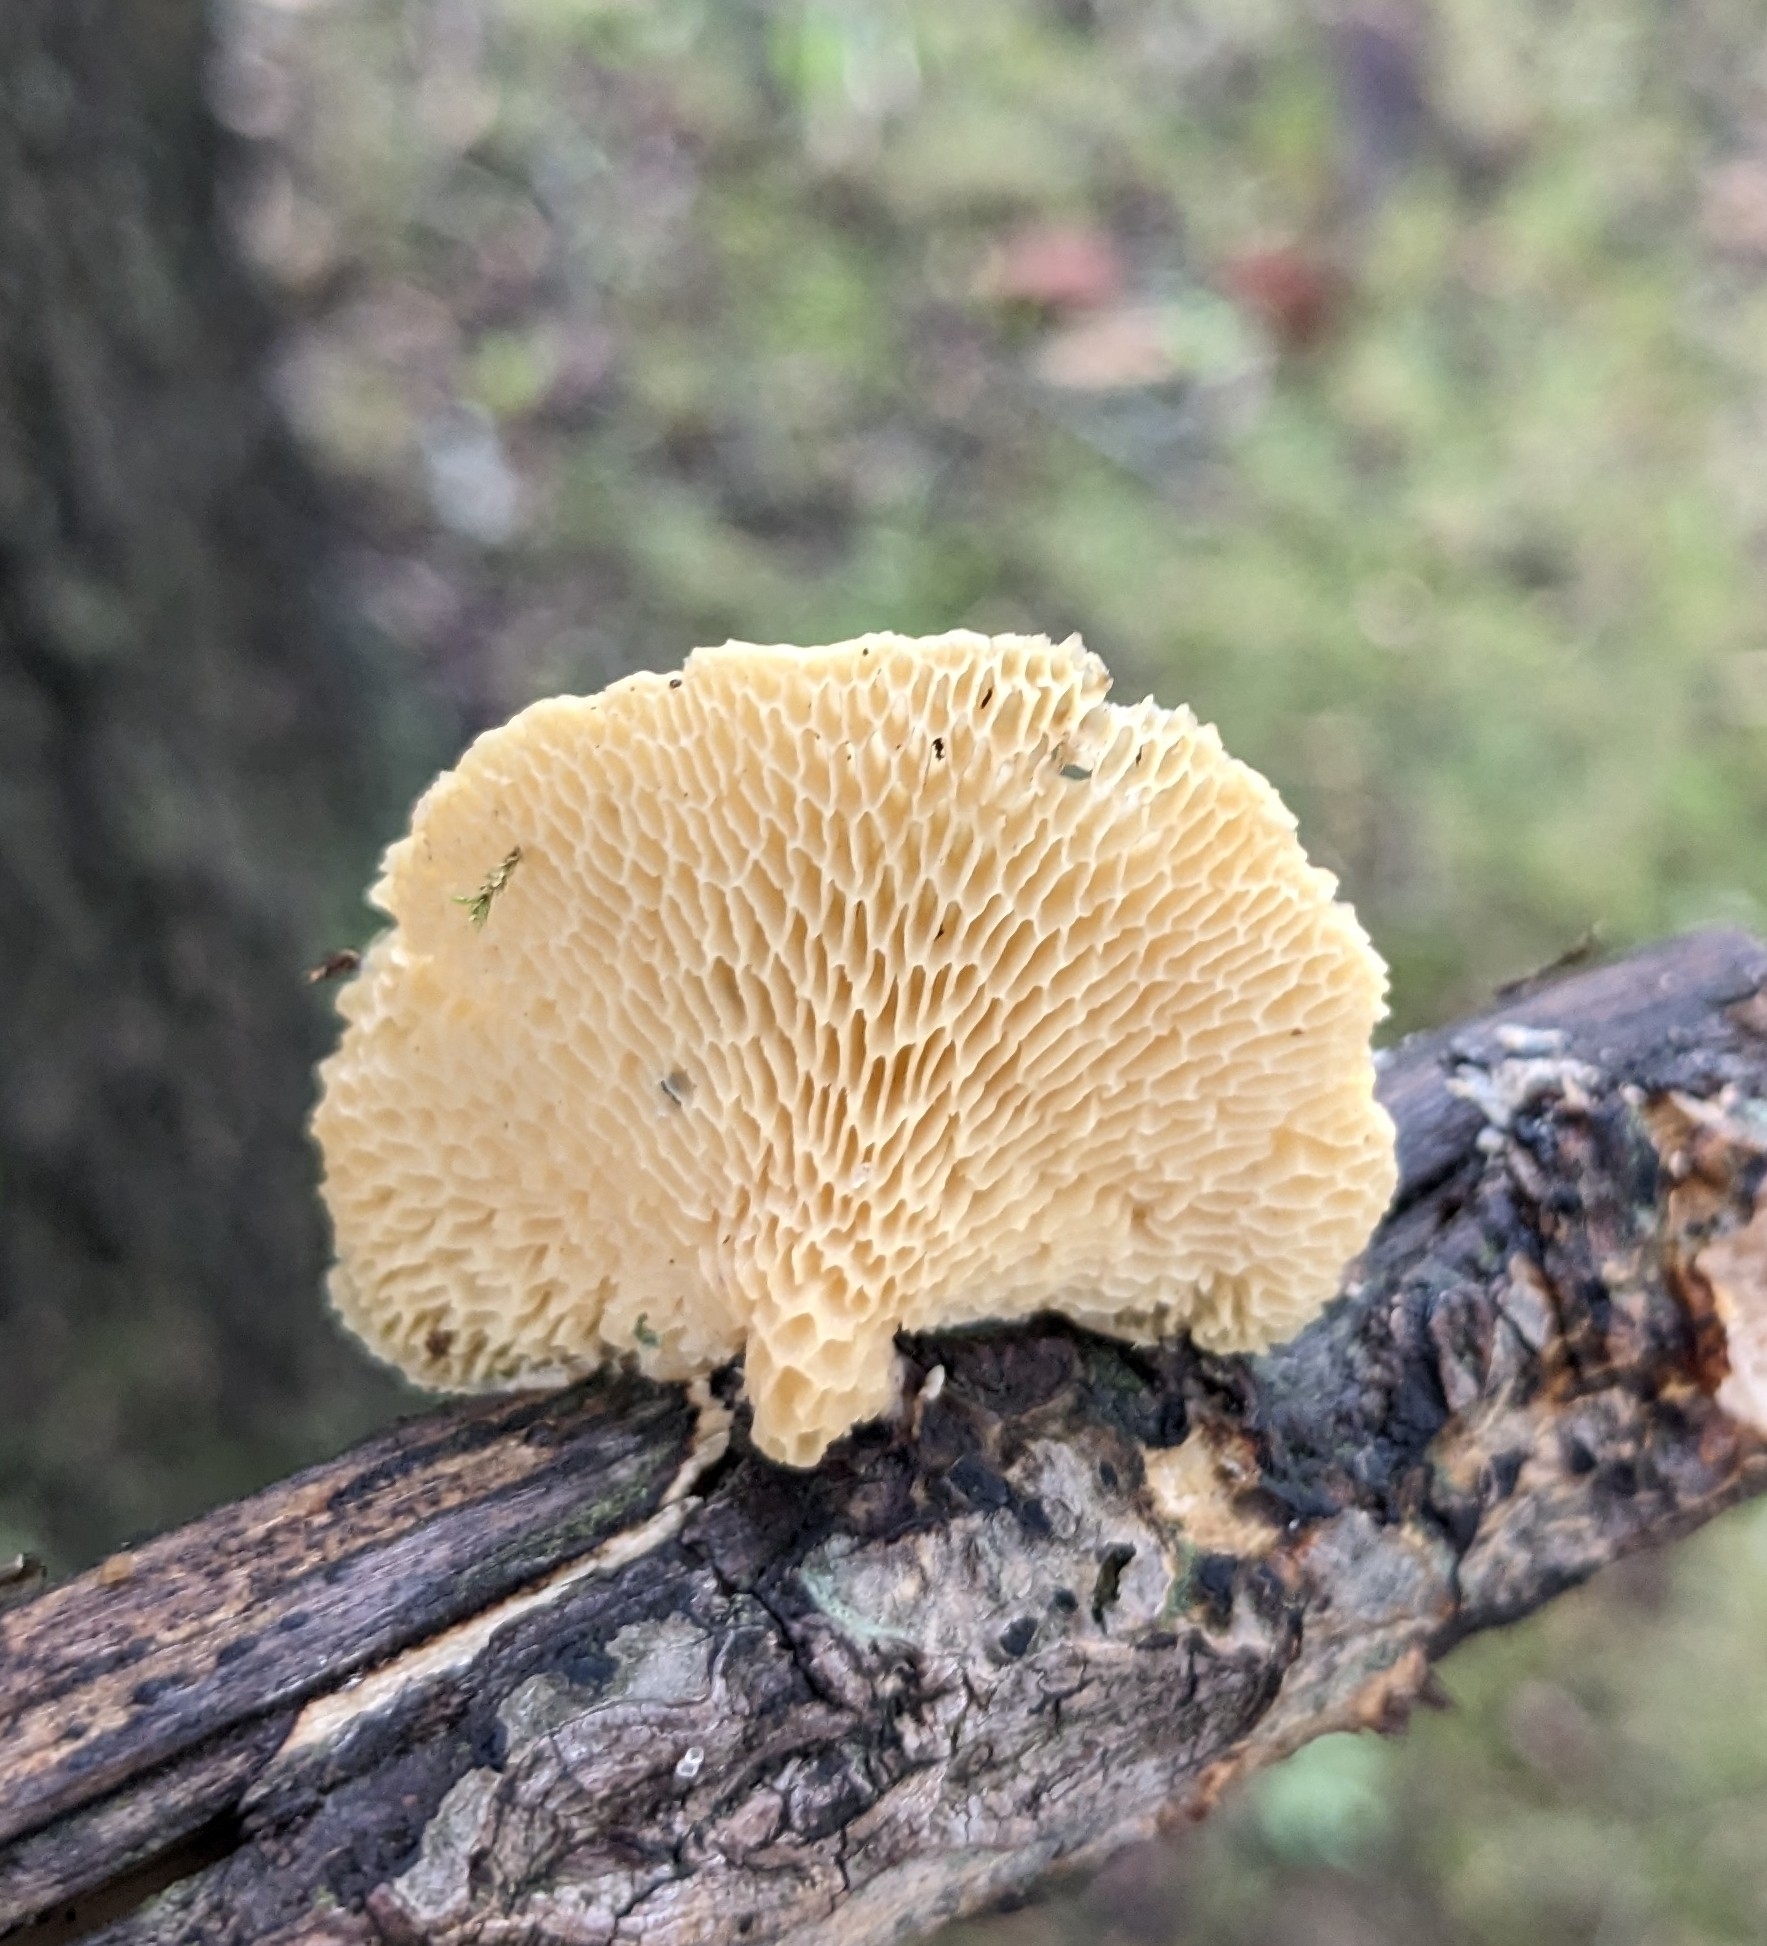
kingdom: Fungi
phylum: Basidiomycota
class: Agaricomycetes
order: Polyporales
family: Polyporaceae
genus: Neofavolus
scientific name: Neofavolus americanus
